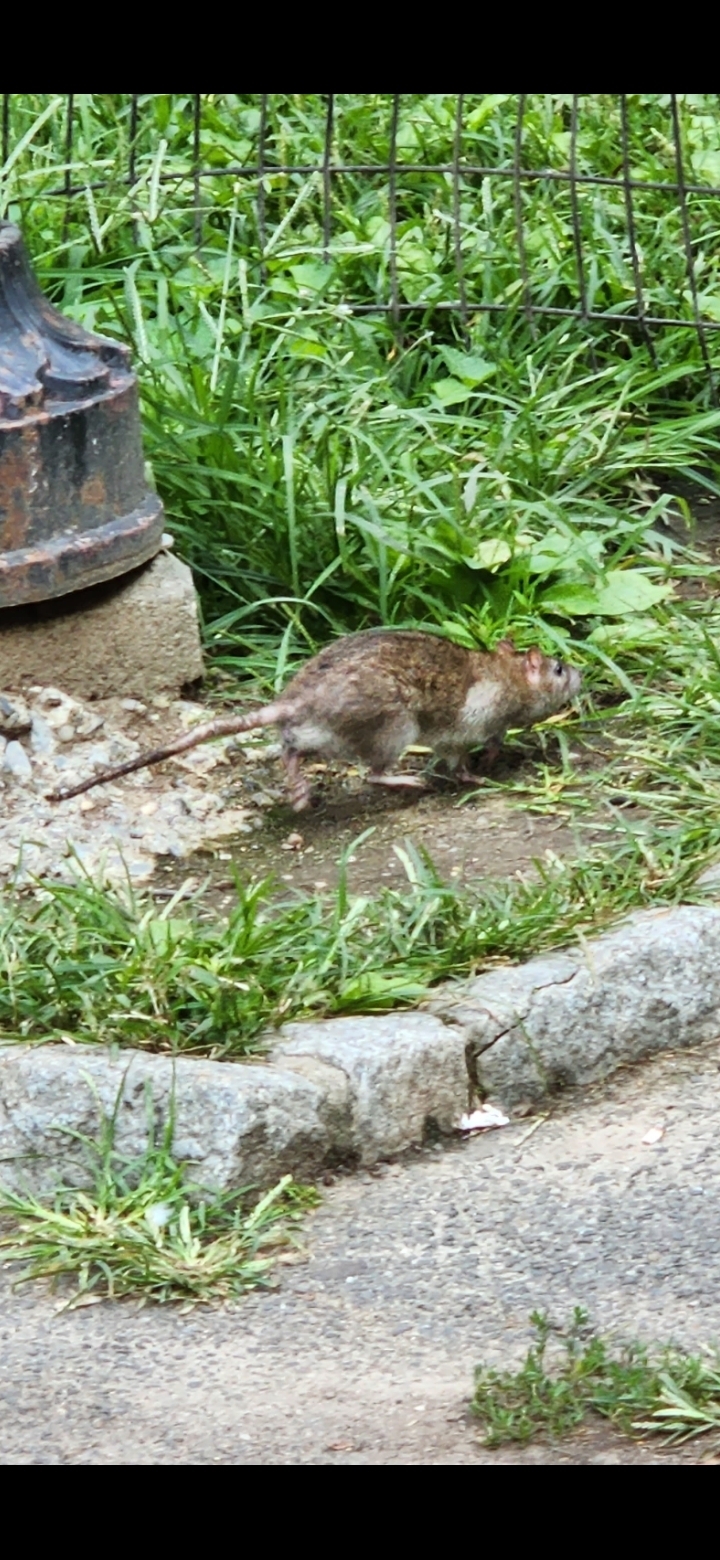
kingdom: Animalia
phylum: Chordata
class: Mammalia
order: Rodentia
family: Muridae
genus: Rattus
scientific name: Rattus norvegicus
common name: Brown rat
